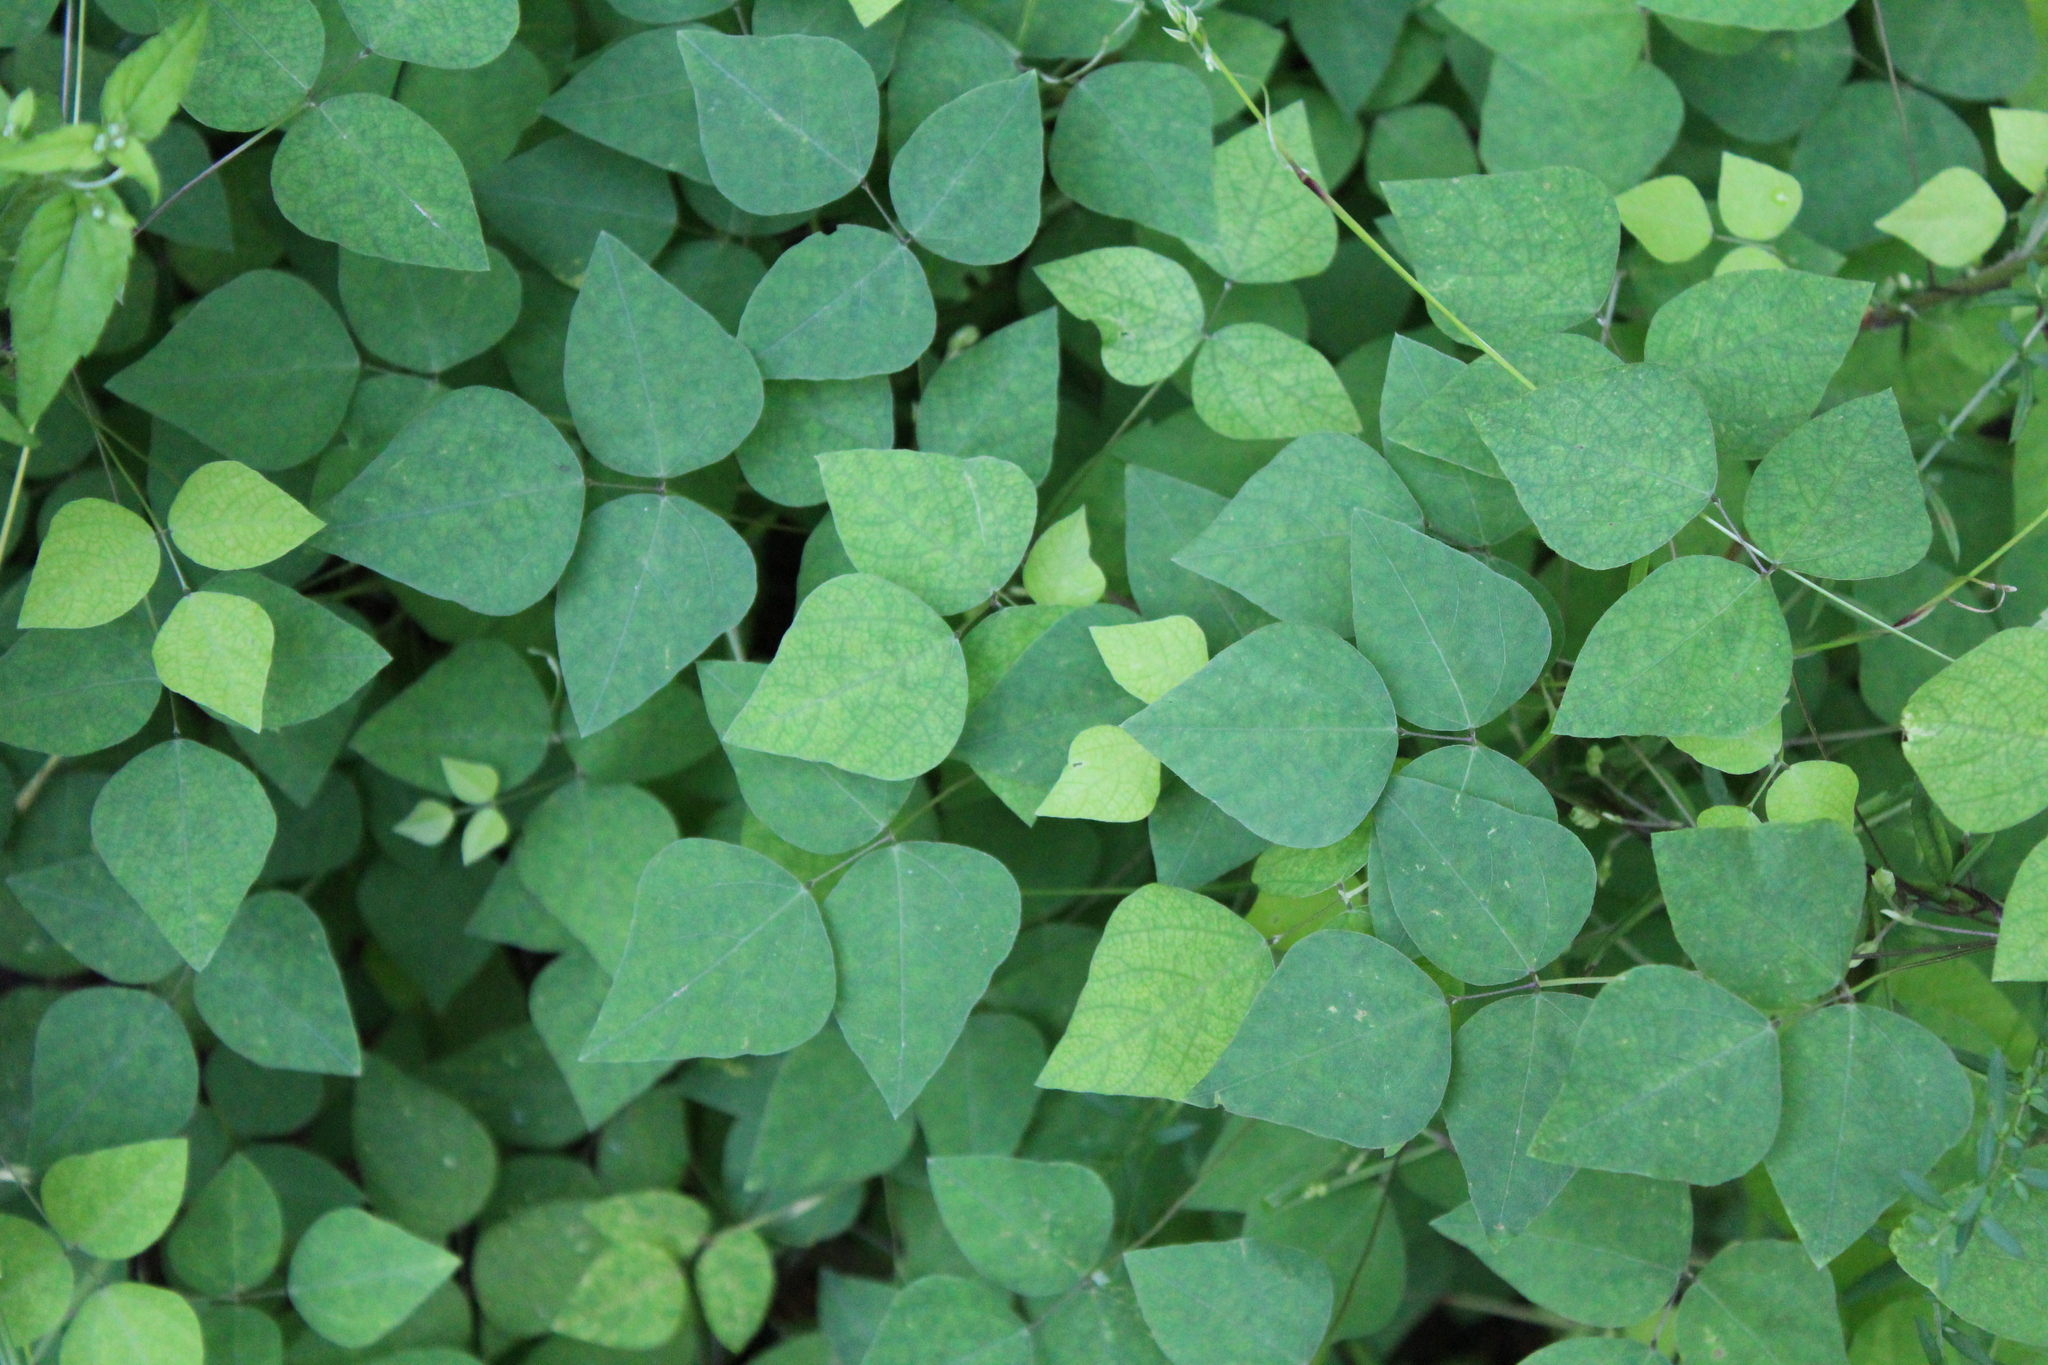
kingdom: Plantae
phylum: Tracheophyta
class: Magnoliopsida
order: Fabales
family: Fabaceae
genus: Amphicarpaea
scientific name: Amphicarpaea bracteata
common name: American hog peanut
